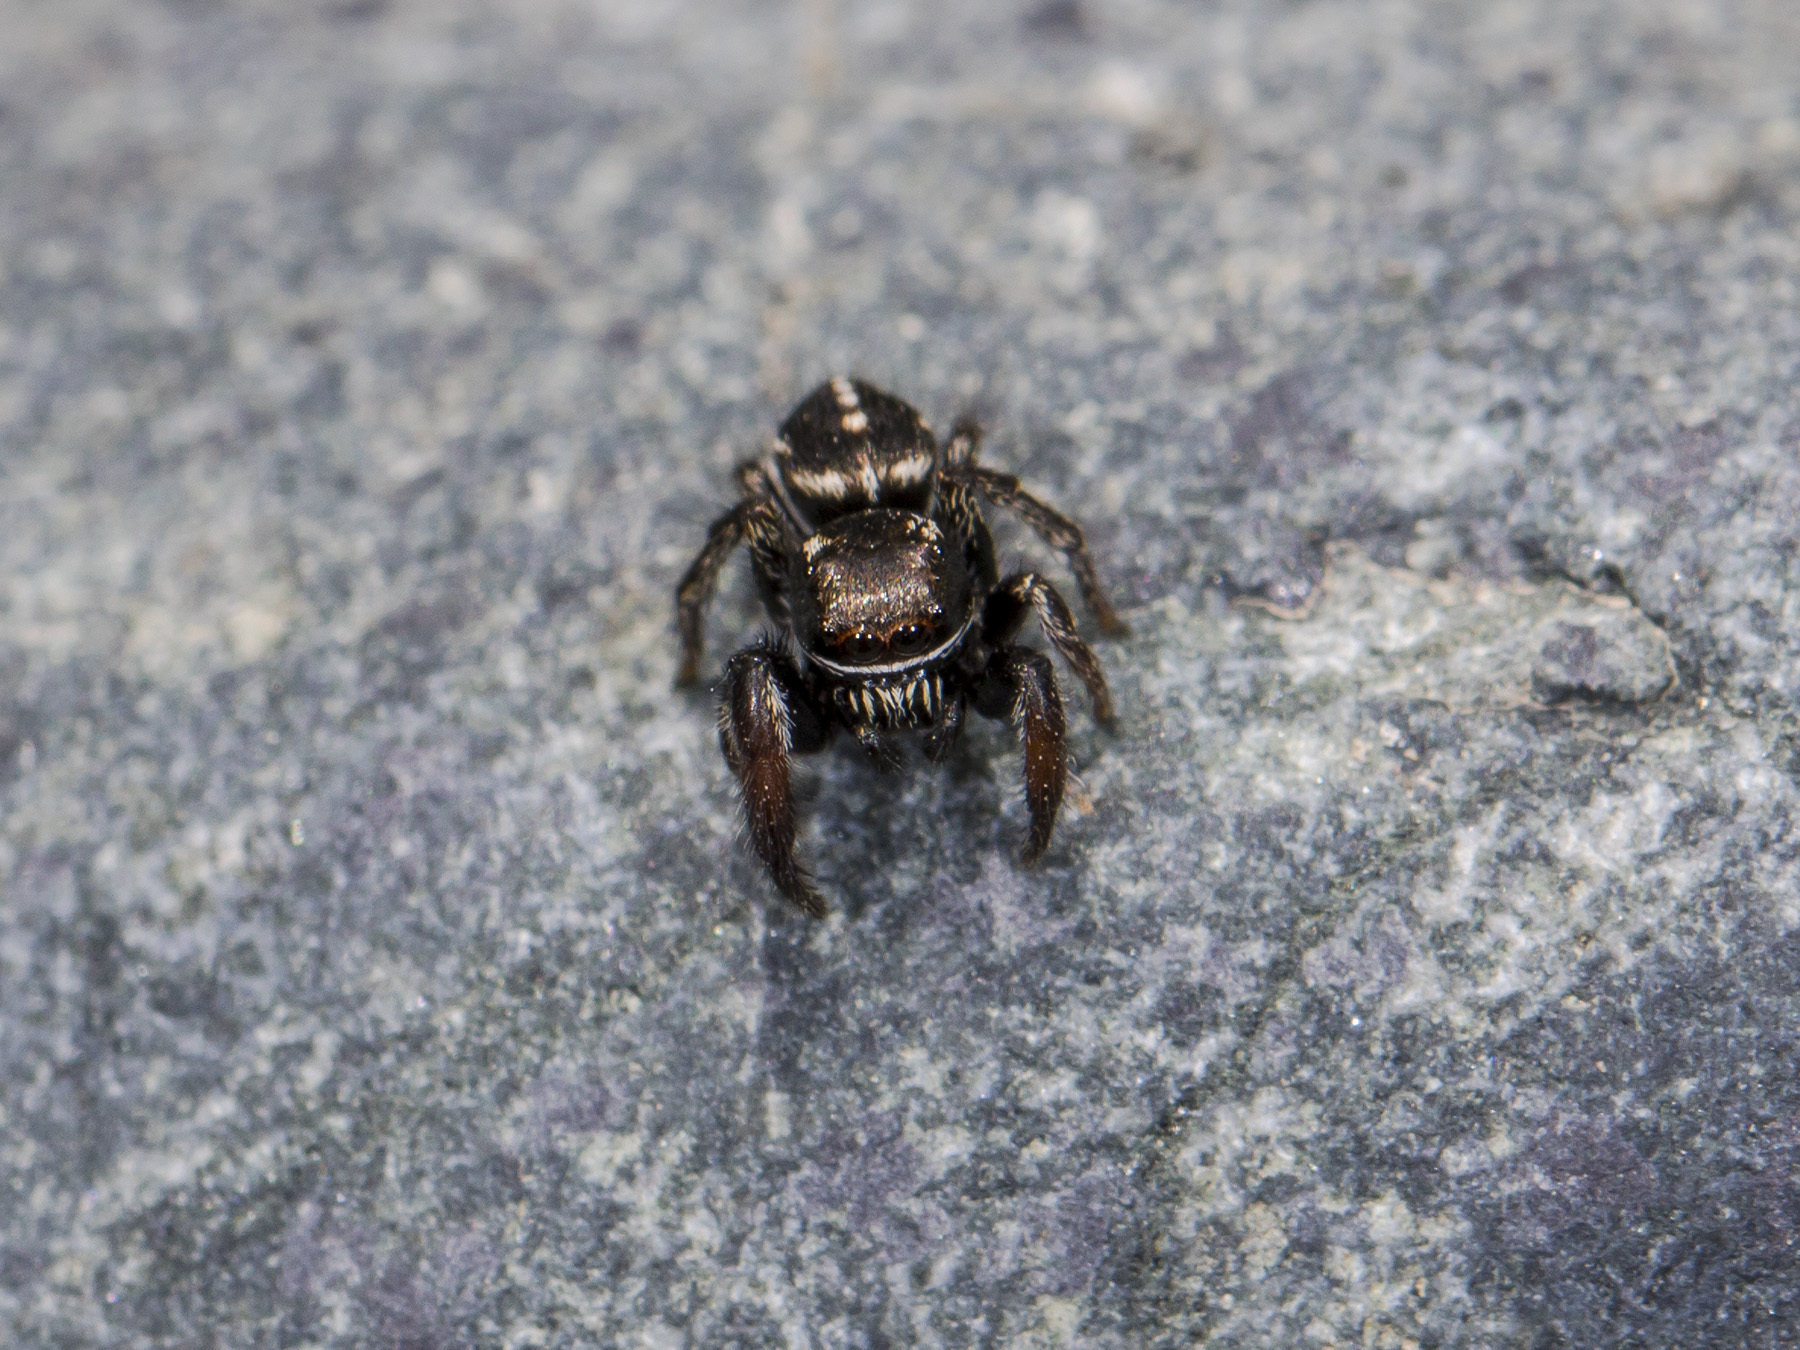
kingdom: Animalia
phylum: Arthropoda
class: Arachnida
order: Araneae
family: Salticidae
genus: Pellenes
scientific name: Pellenes allegrii
